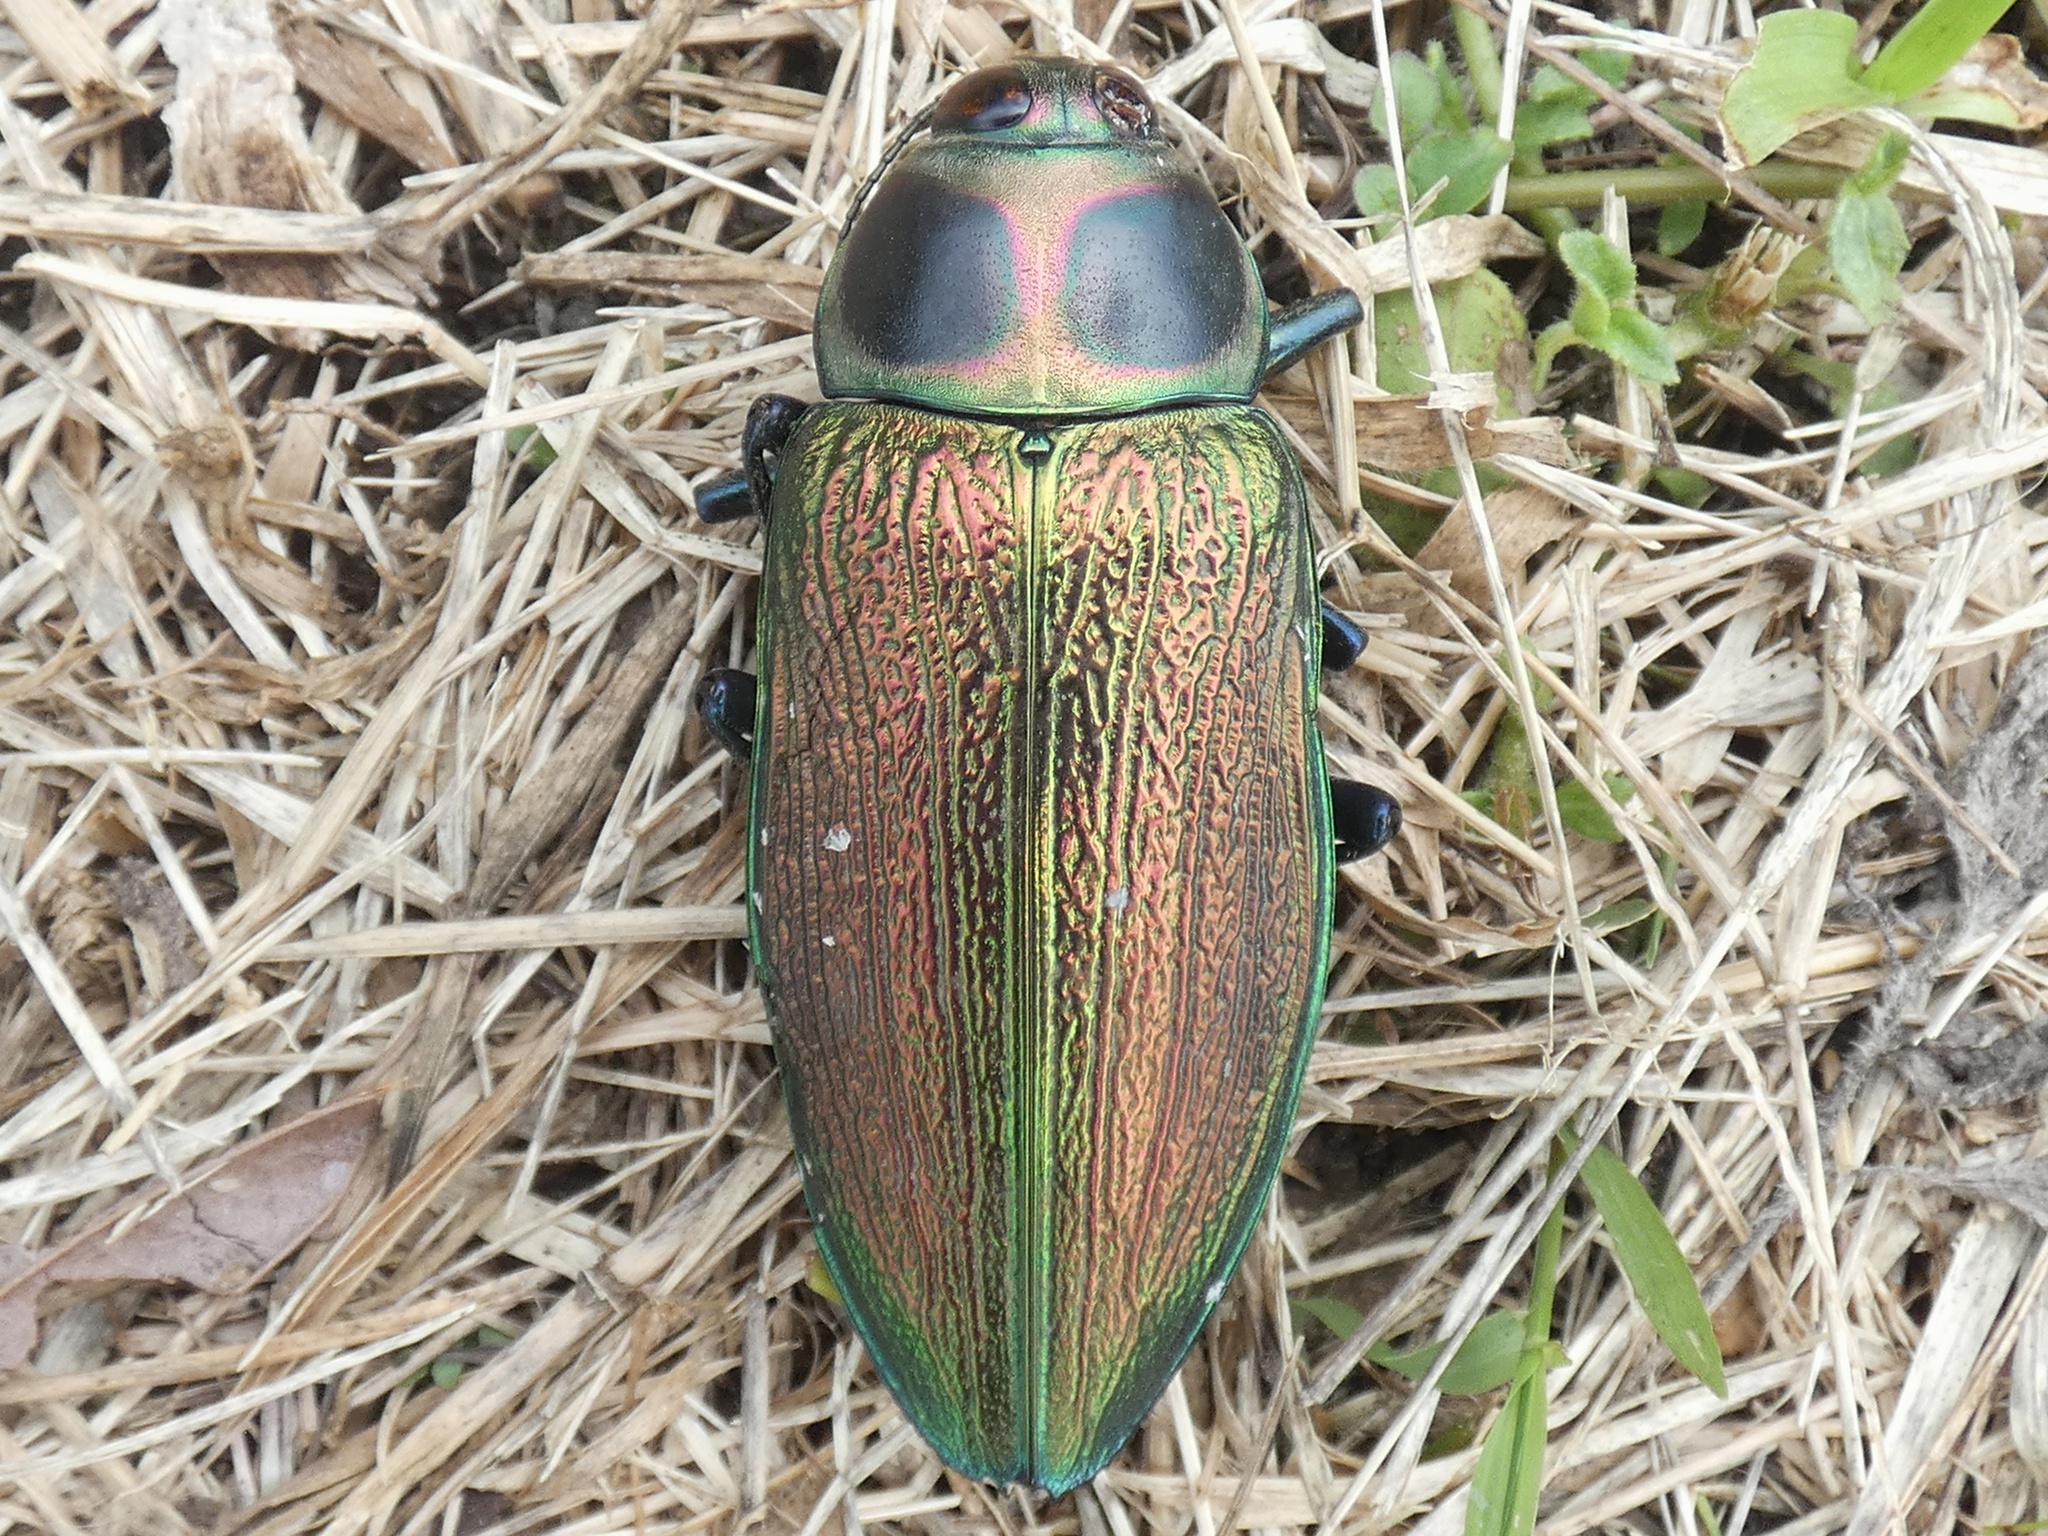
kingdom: Animalia
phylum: Arthropoda
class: Insecta
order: Coleoptera
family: Buprestidae
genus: Euchroma
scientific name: Euchroma giganteum
